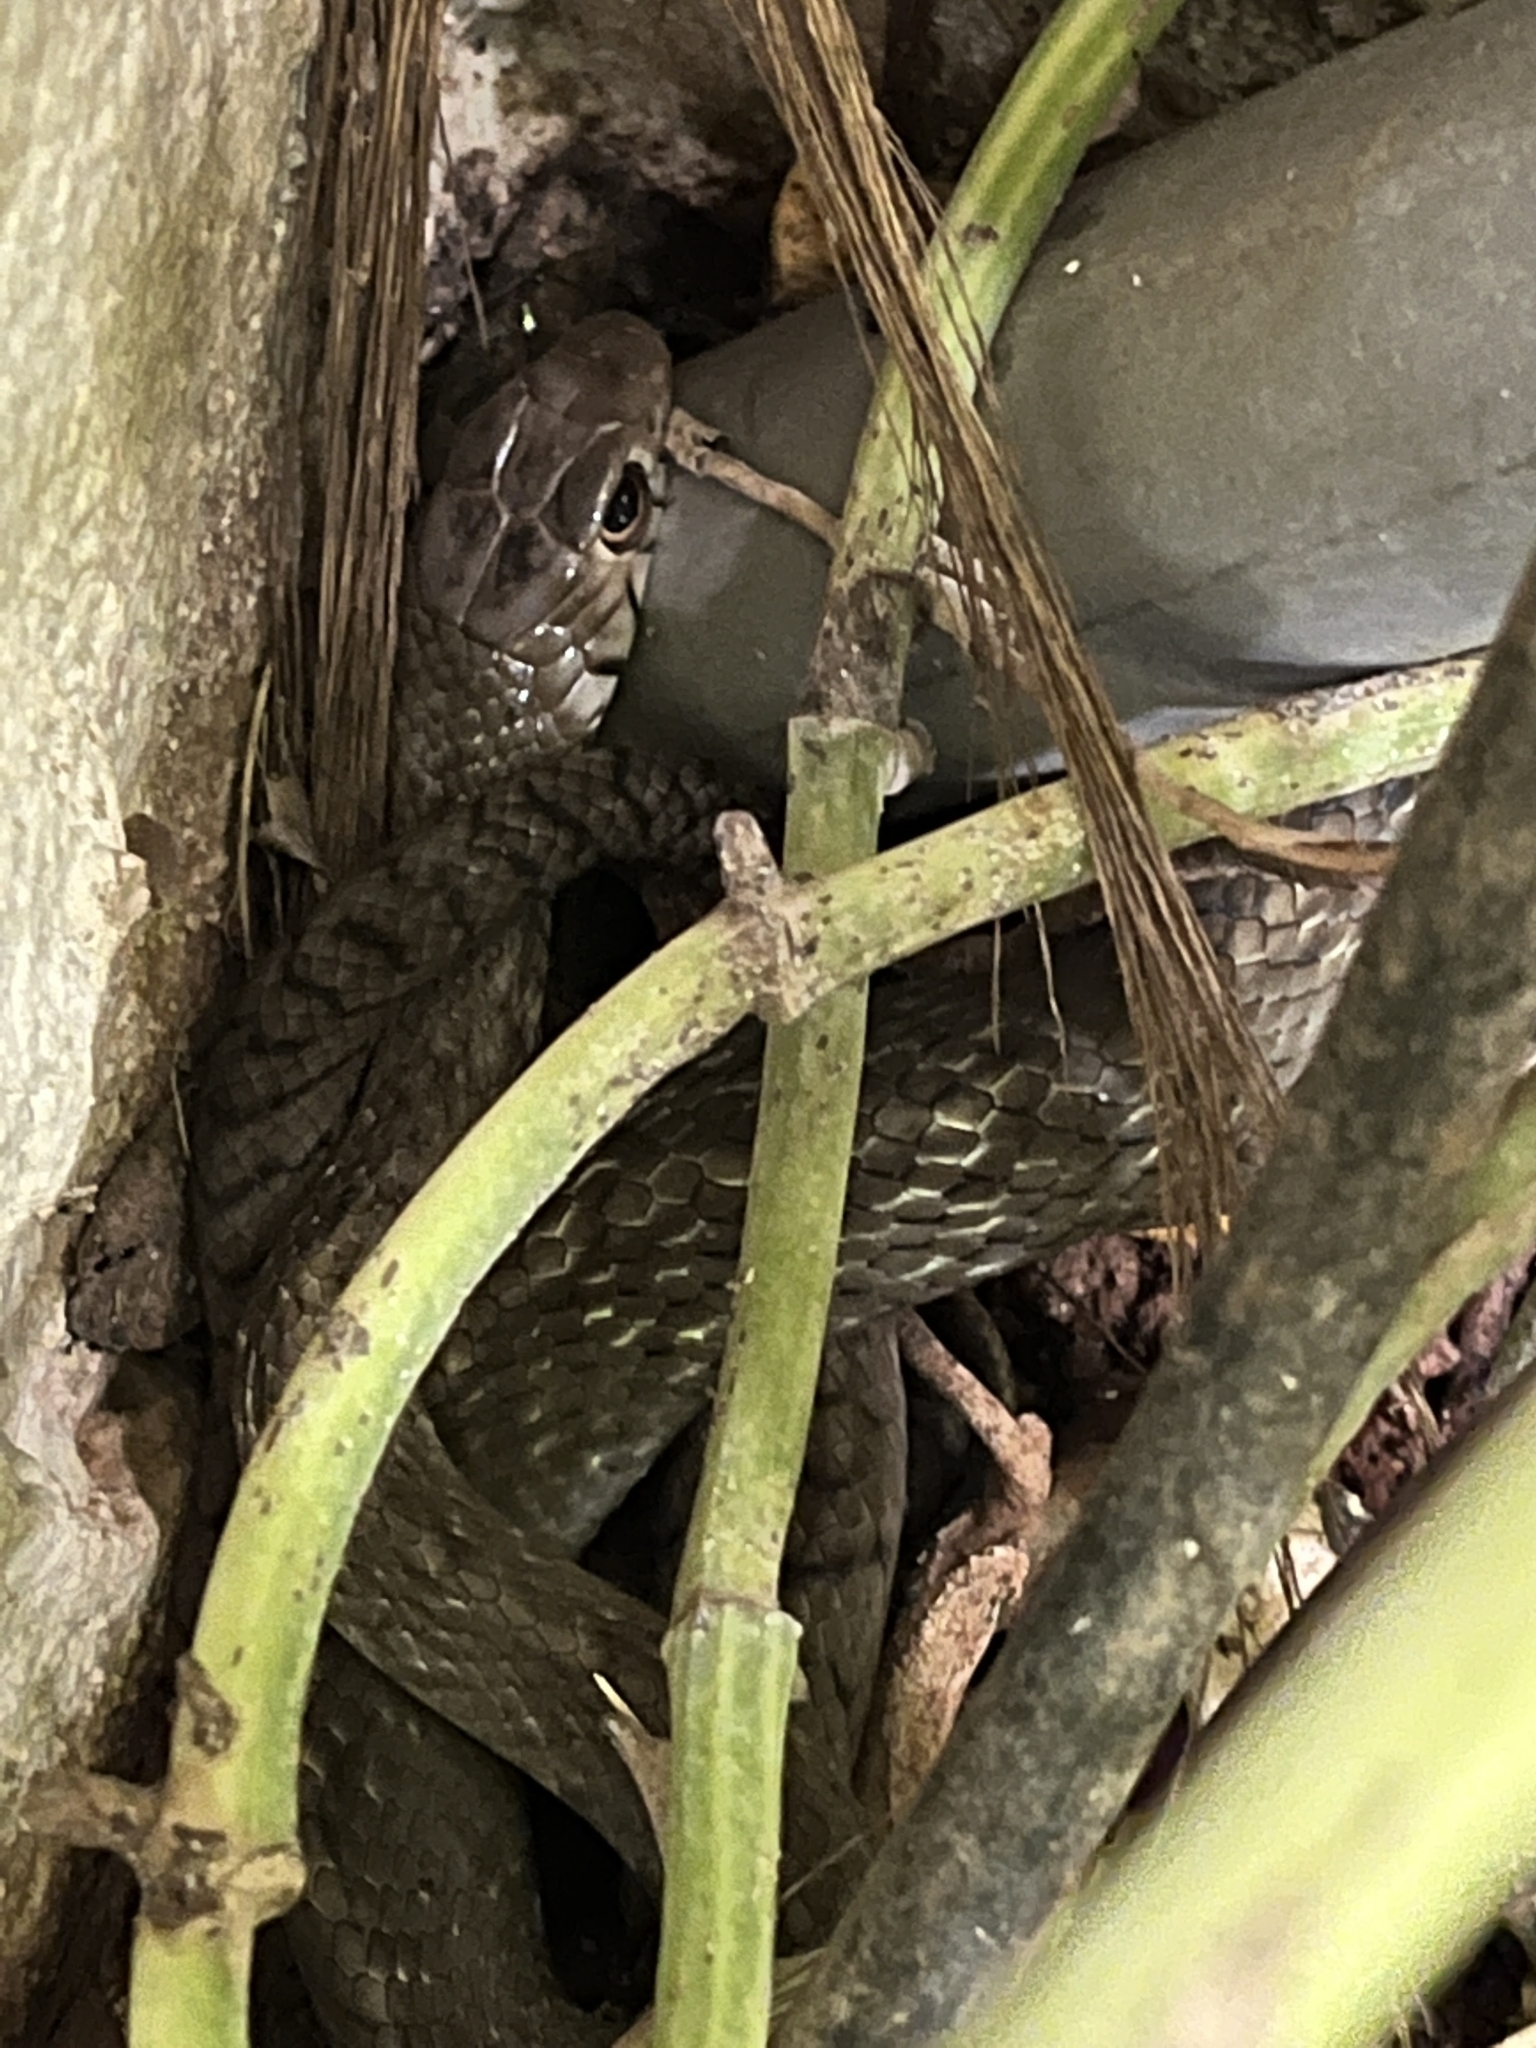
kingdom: Animalia
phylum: Chordata
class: Squamata
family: Colubridae
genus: Ptyas
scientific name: Ptyas mucosa
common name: Oriental ratsnake
